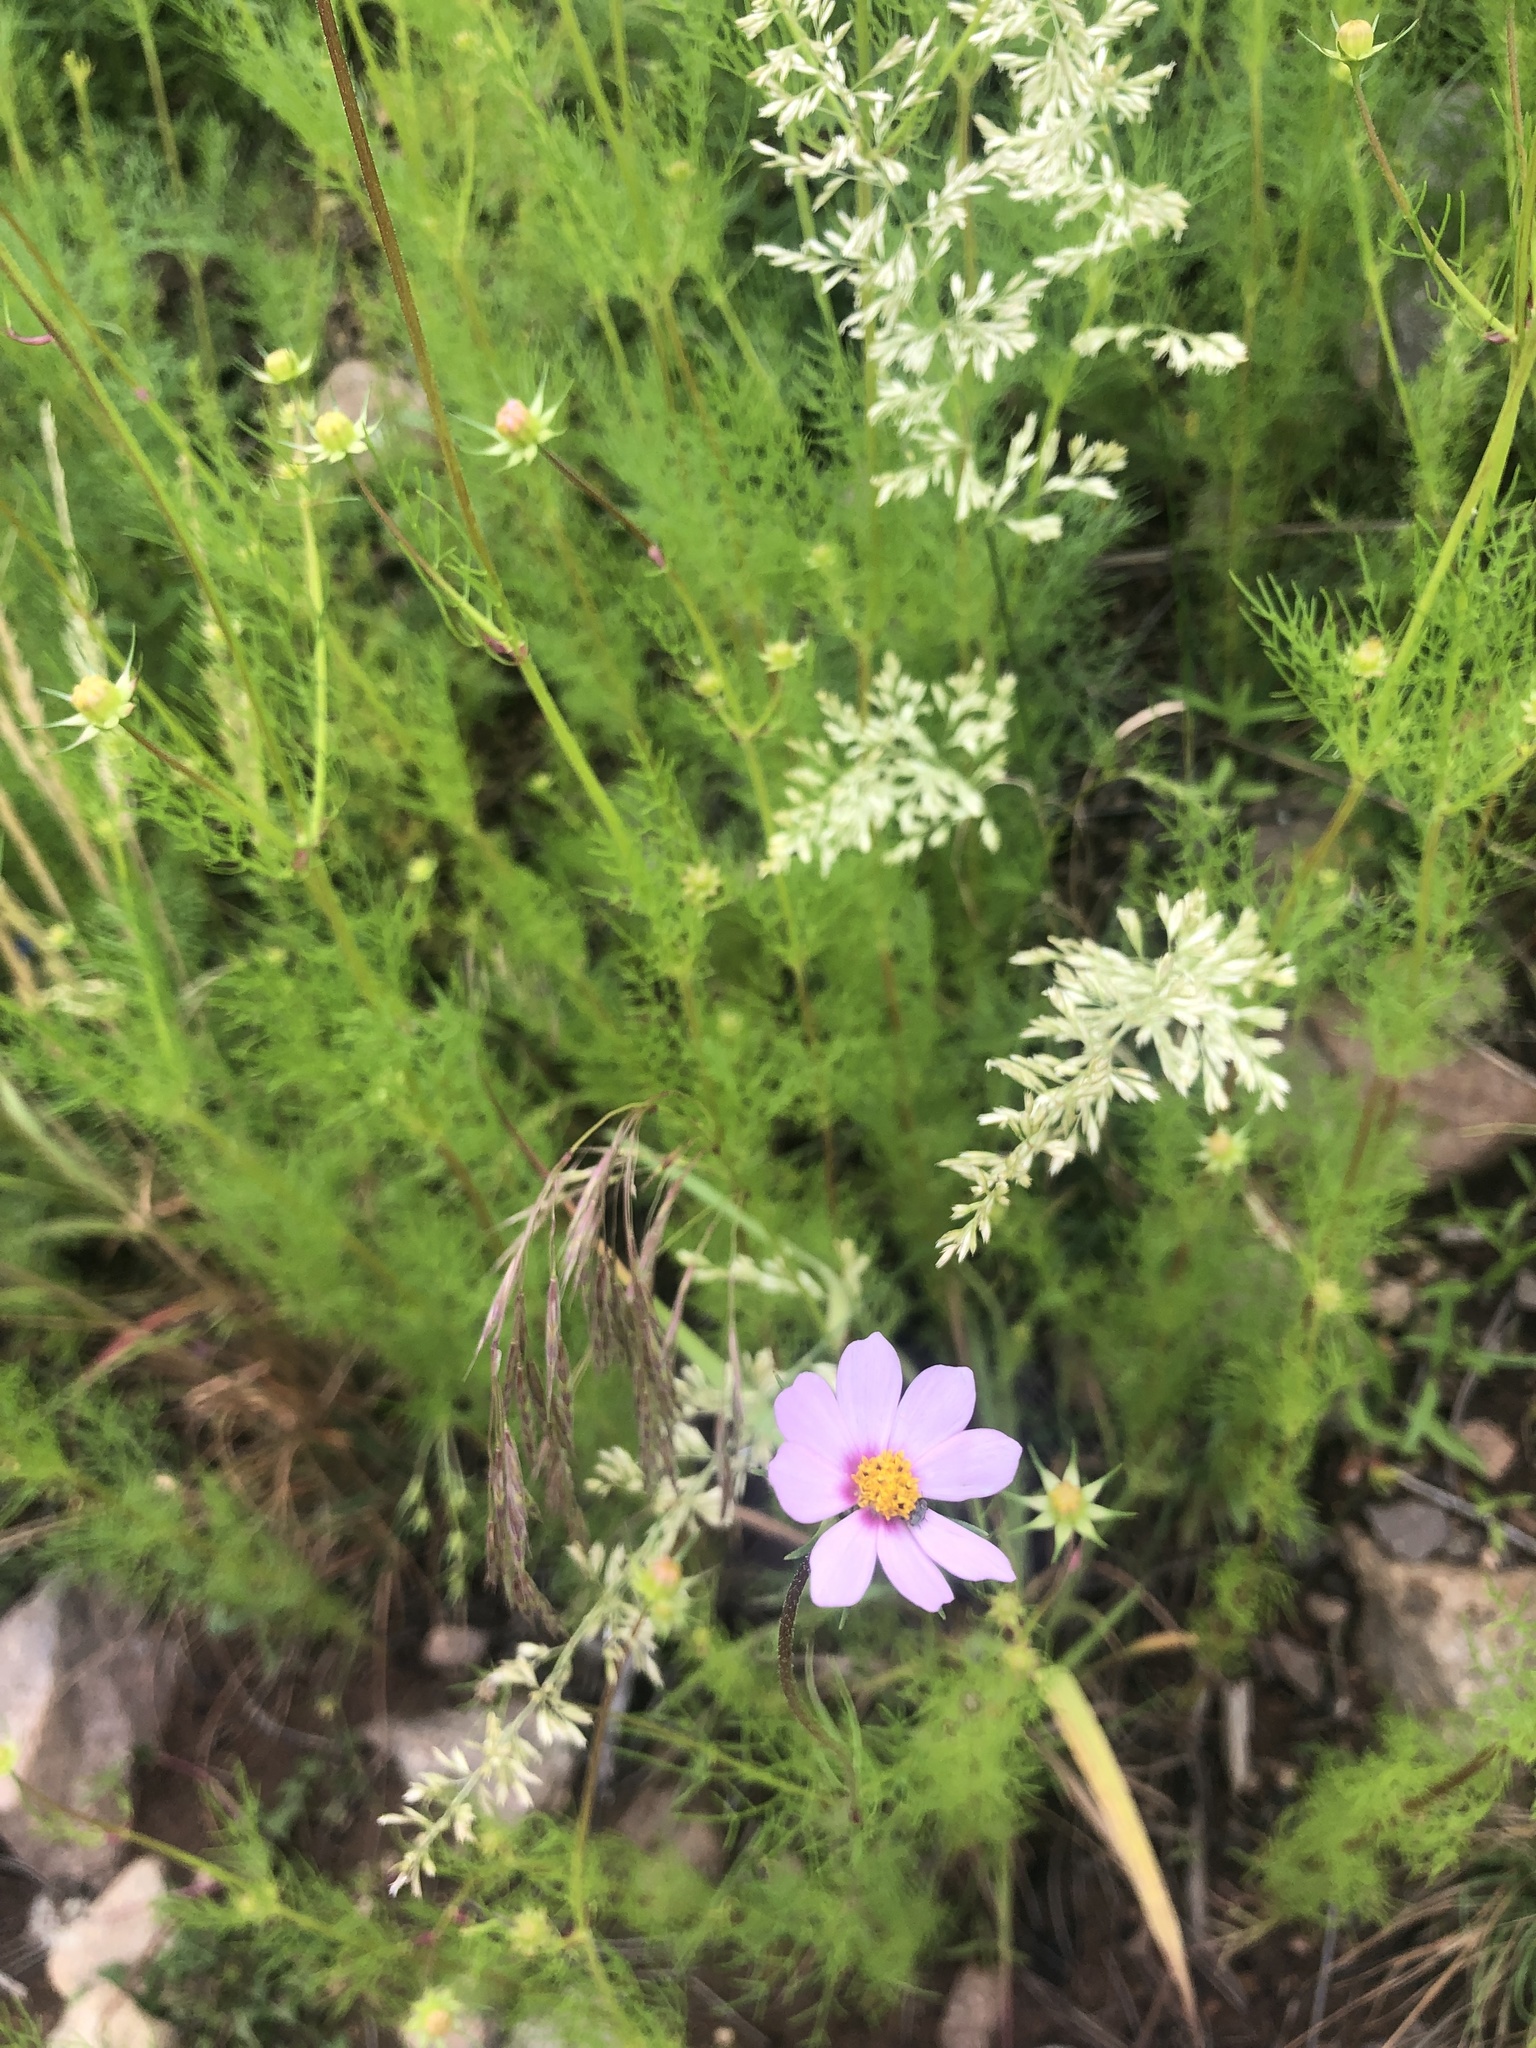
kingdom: Plantae
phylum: Tracheophyta
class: Magnoliopsida
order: Asterales
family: Asteraceae
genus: Cosmos
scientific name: Cosmos parviflorus
